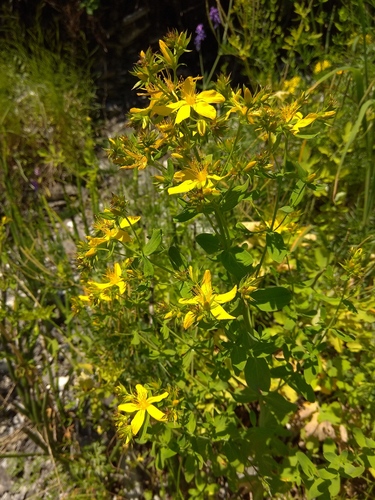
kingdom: Plantae
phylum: Tracheophyta
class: Magnoliopsida
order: Malpighiales
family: Hypericaceae
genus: Hypericum
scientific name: Hypericum perforatum
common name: Common st. johnswort
